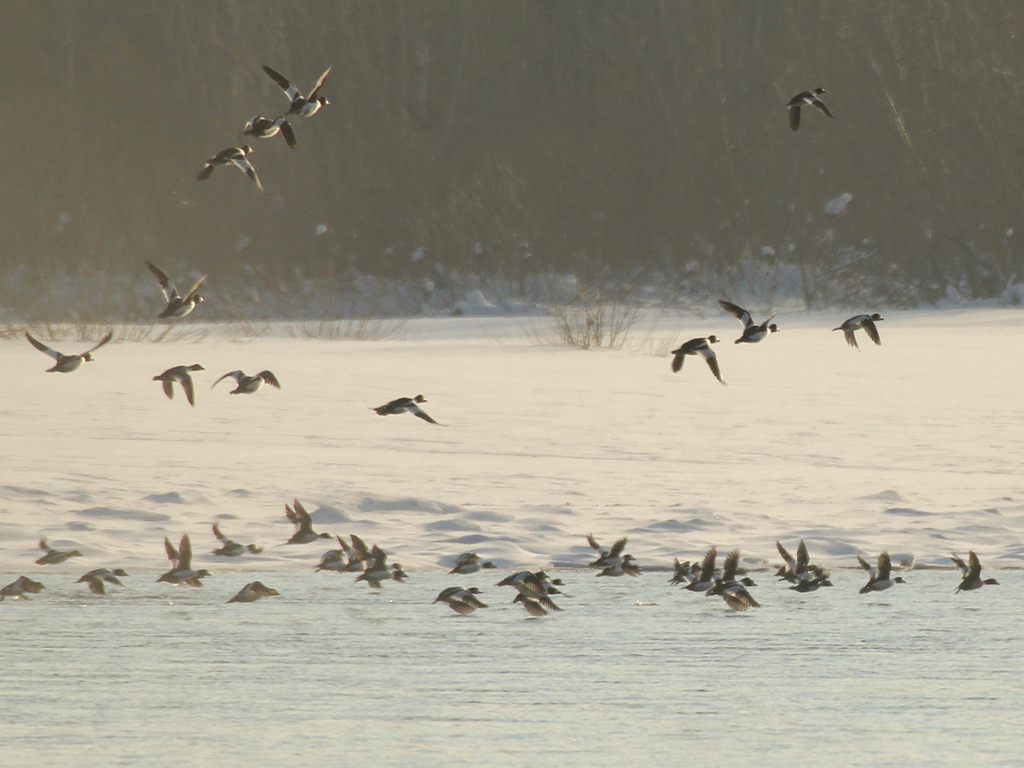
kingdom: Animalia
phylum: Chordata
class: Aves
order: Anseriformes
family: Anatidae
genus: Bucephala
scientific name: Bucephala clangula
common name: Common goldeneye
